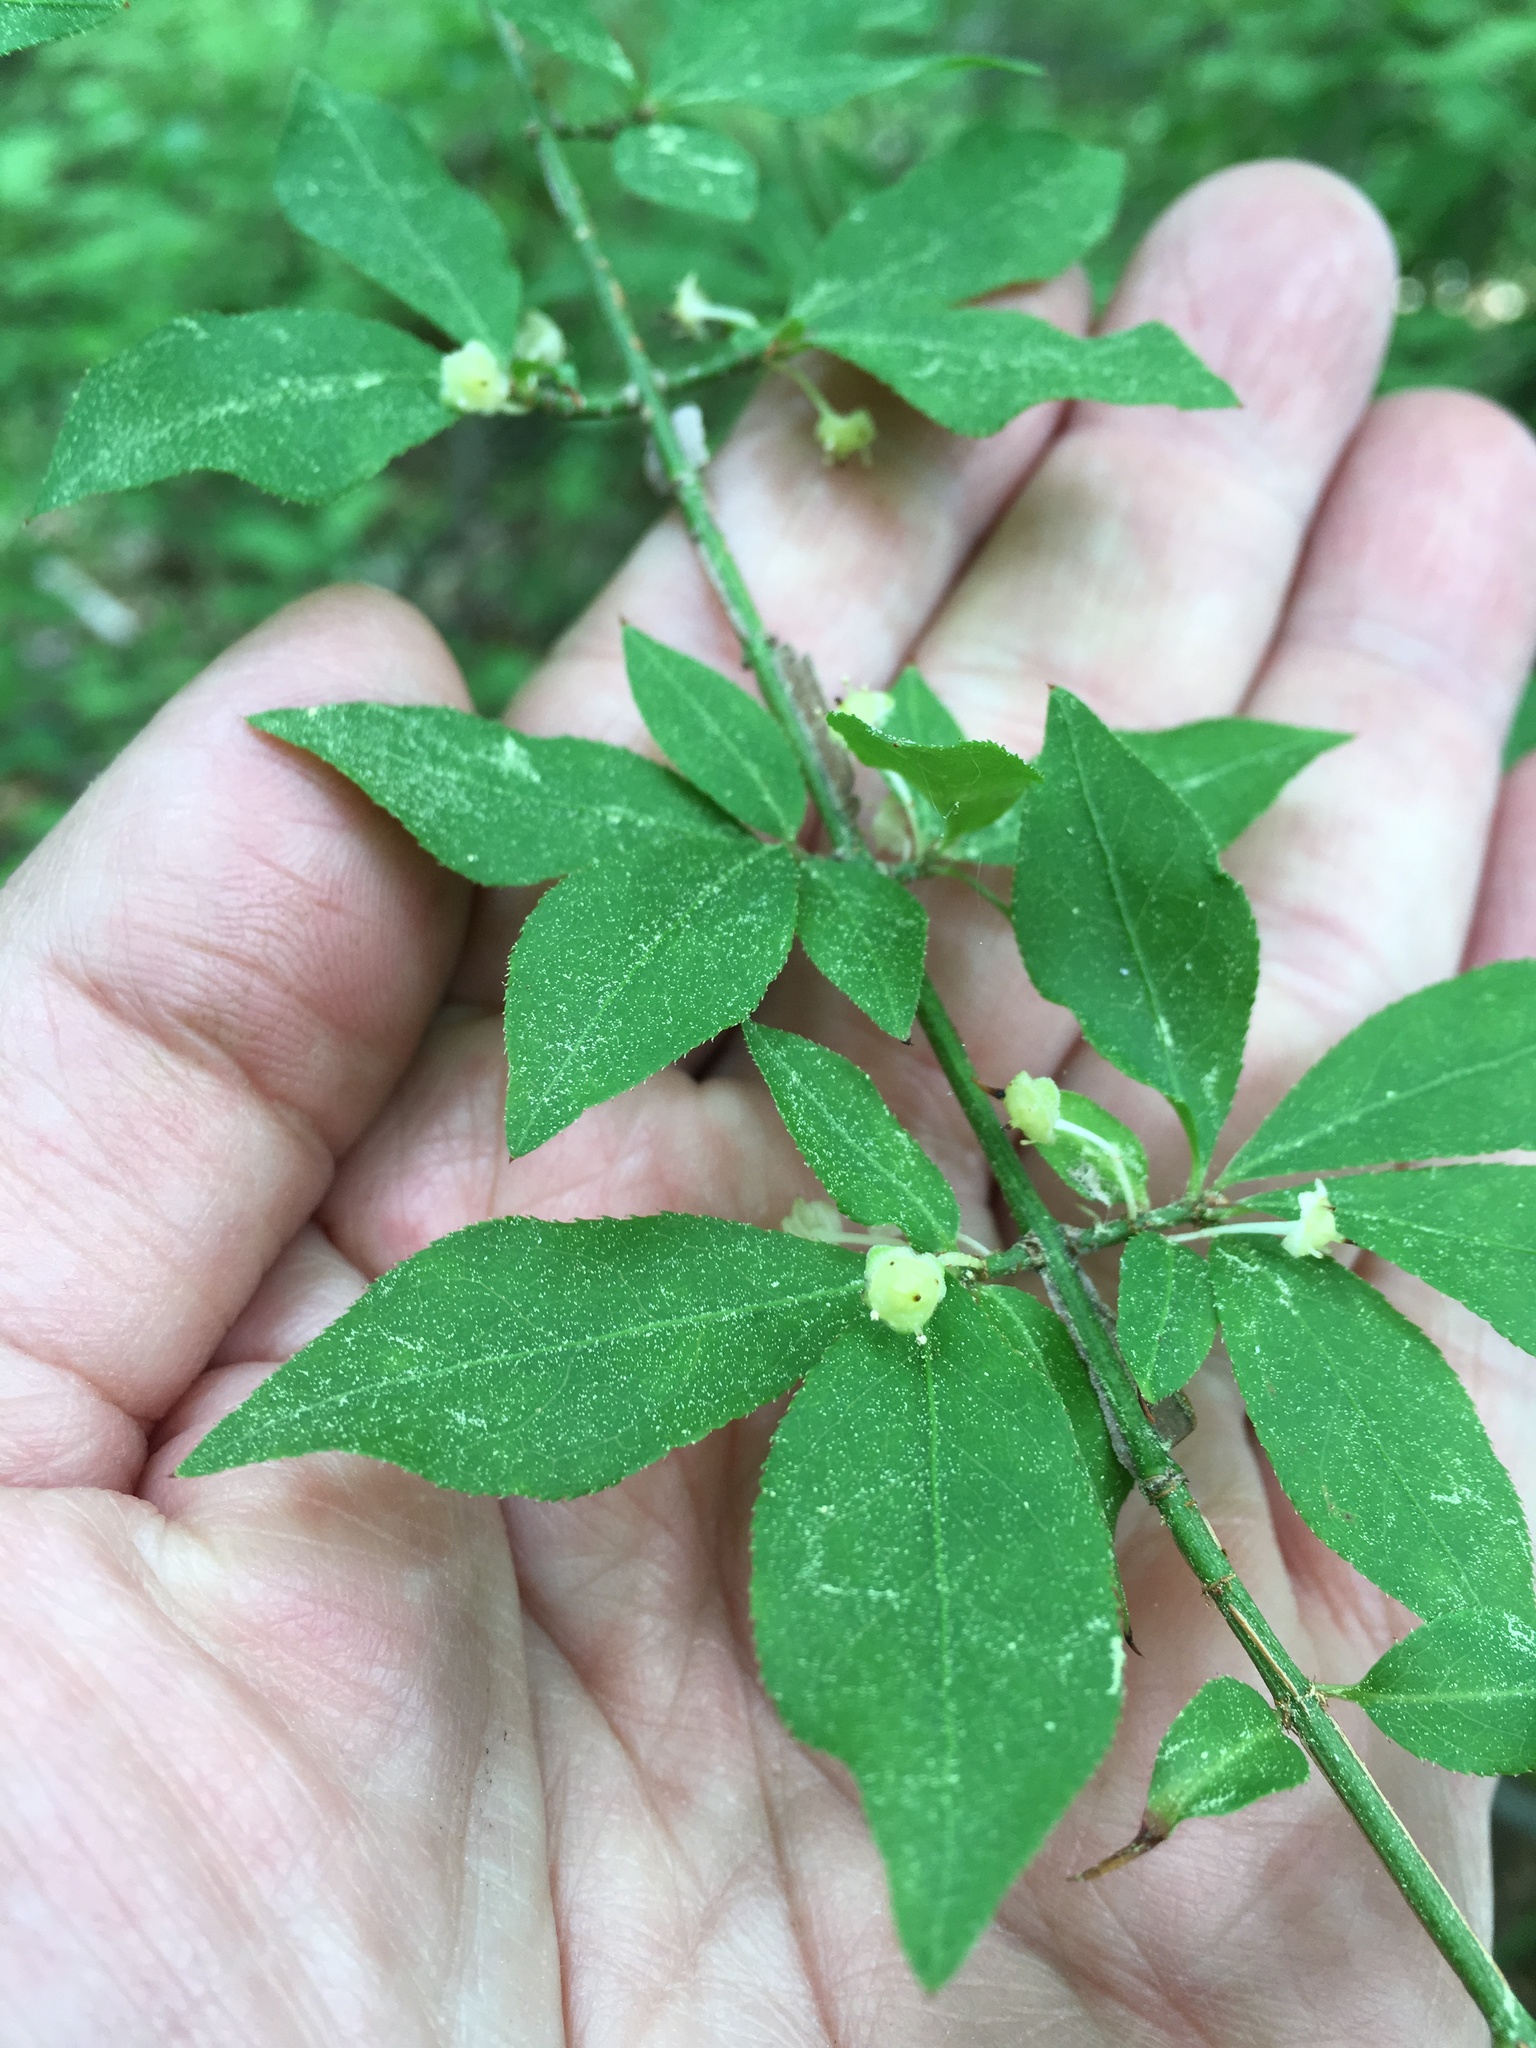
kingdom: Plantae
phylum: Tracheophyta
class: Magnoliopsida
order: Celastrales
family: Celastraceae
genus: Euonymus
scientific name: Euonymus alatus
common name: Winged euonymus
